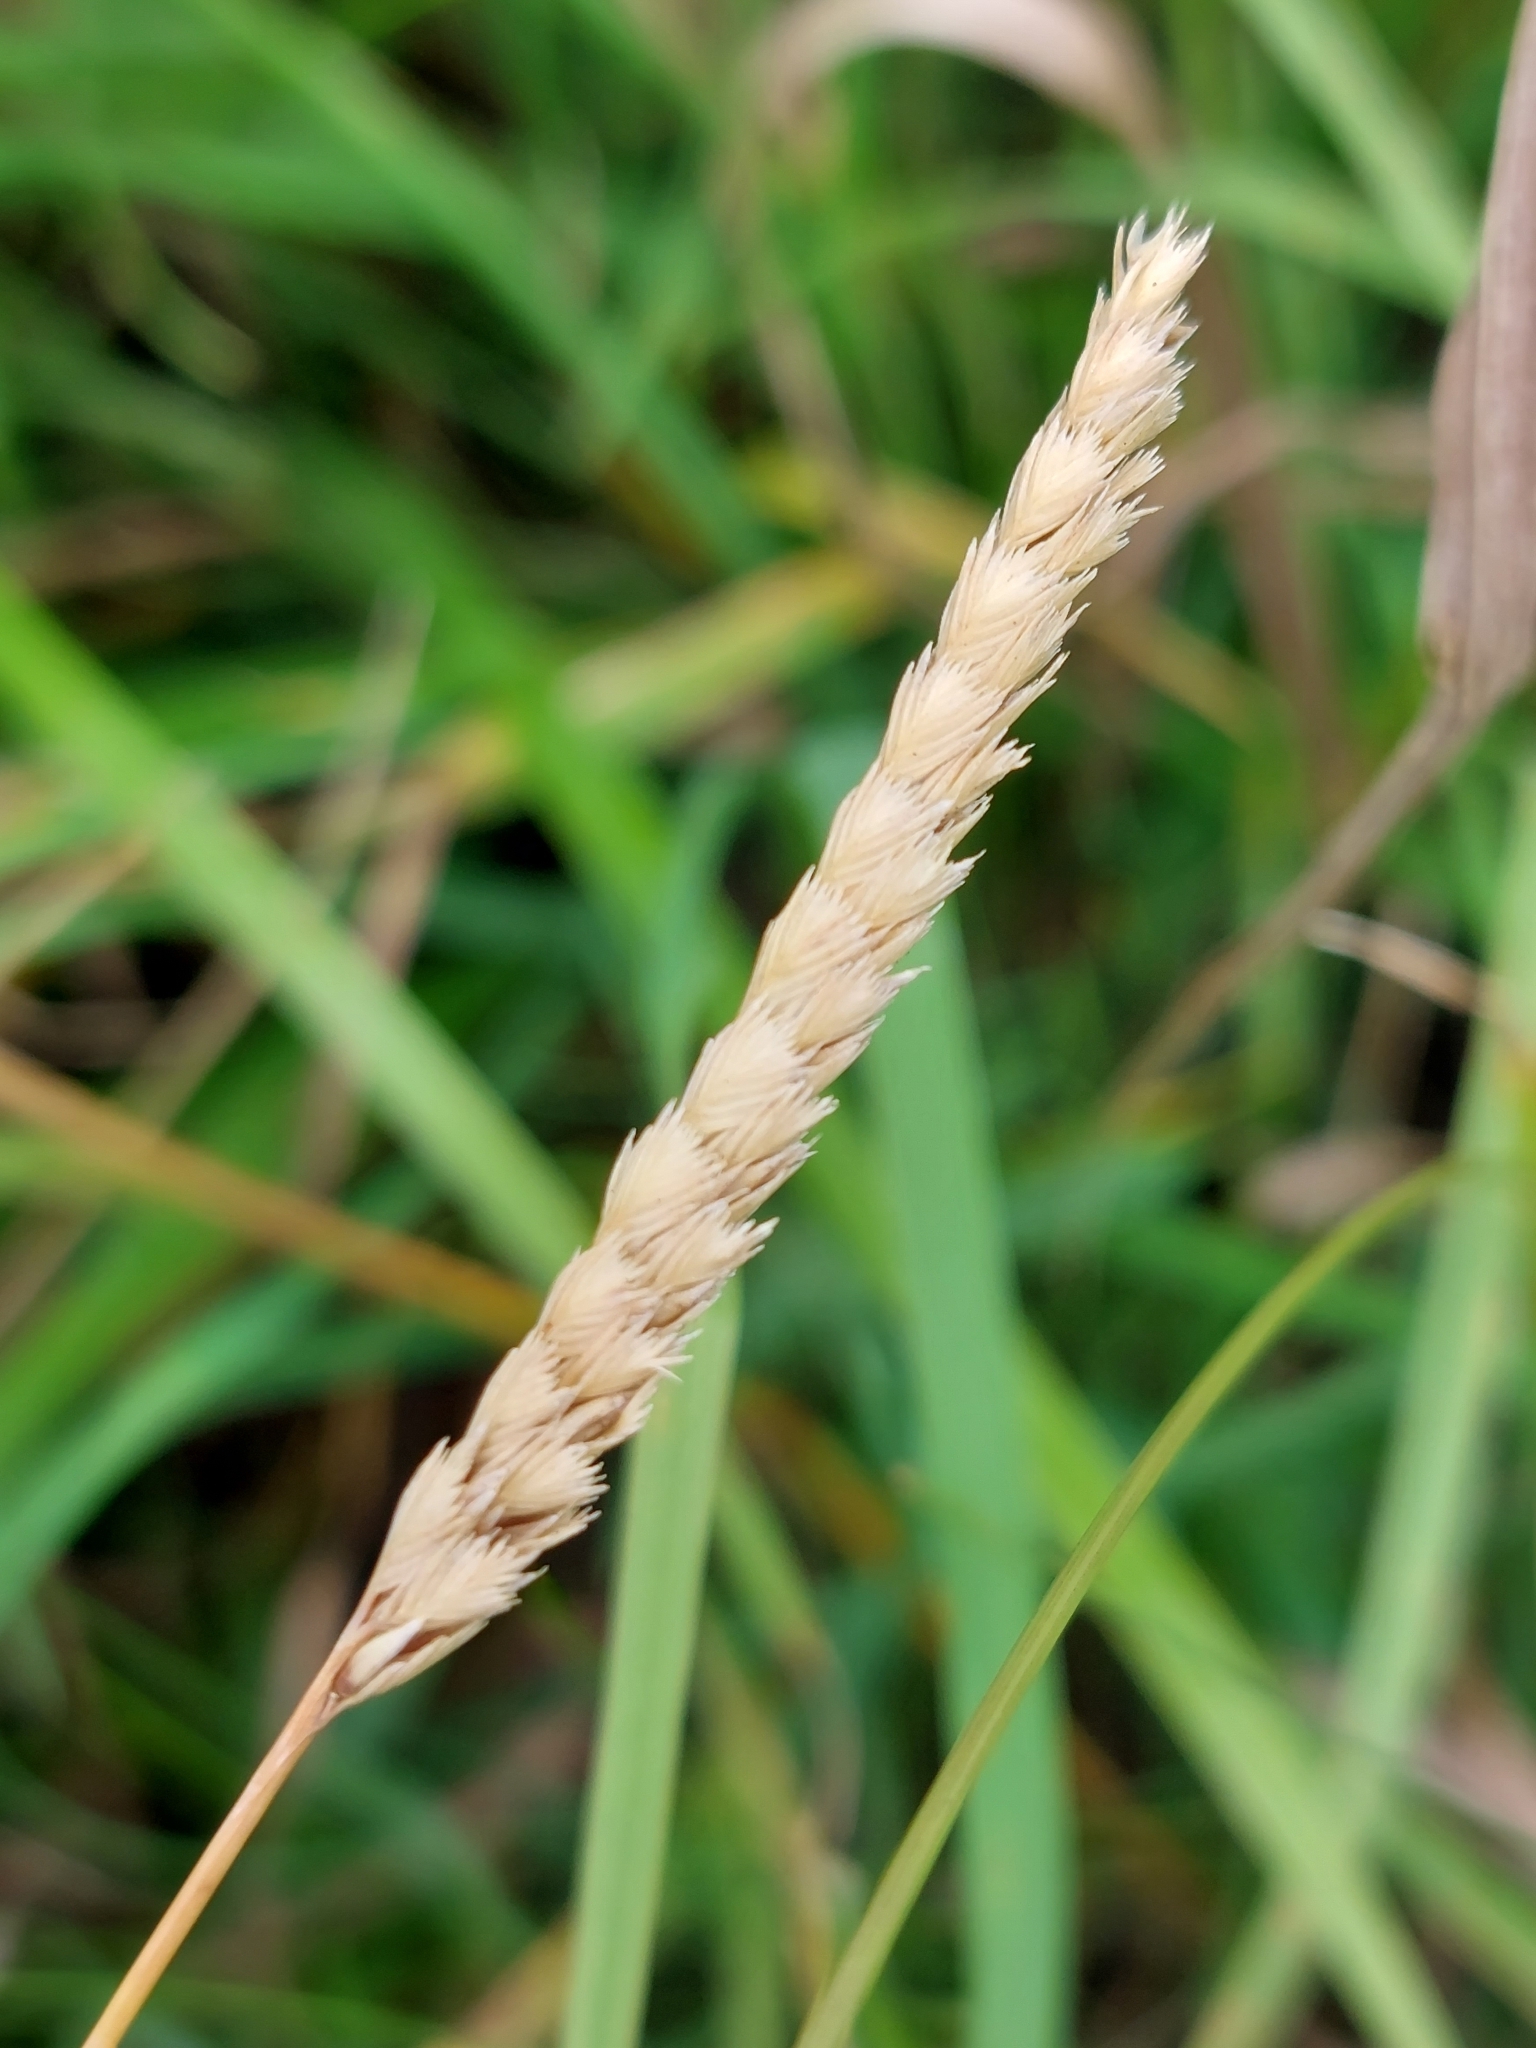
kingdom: Plantae
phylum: Tracheophyta
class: Liliopsida
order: Poales
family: Poaceae
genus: Cynosurus
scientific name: Cynosurus cristatus
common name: Crested dog's-tail
